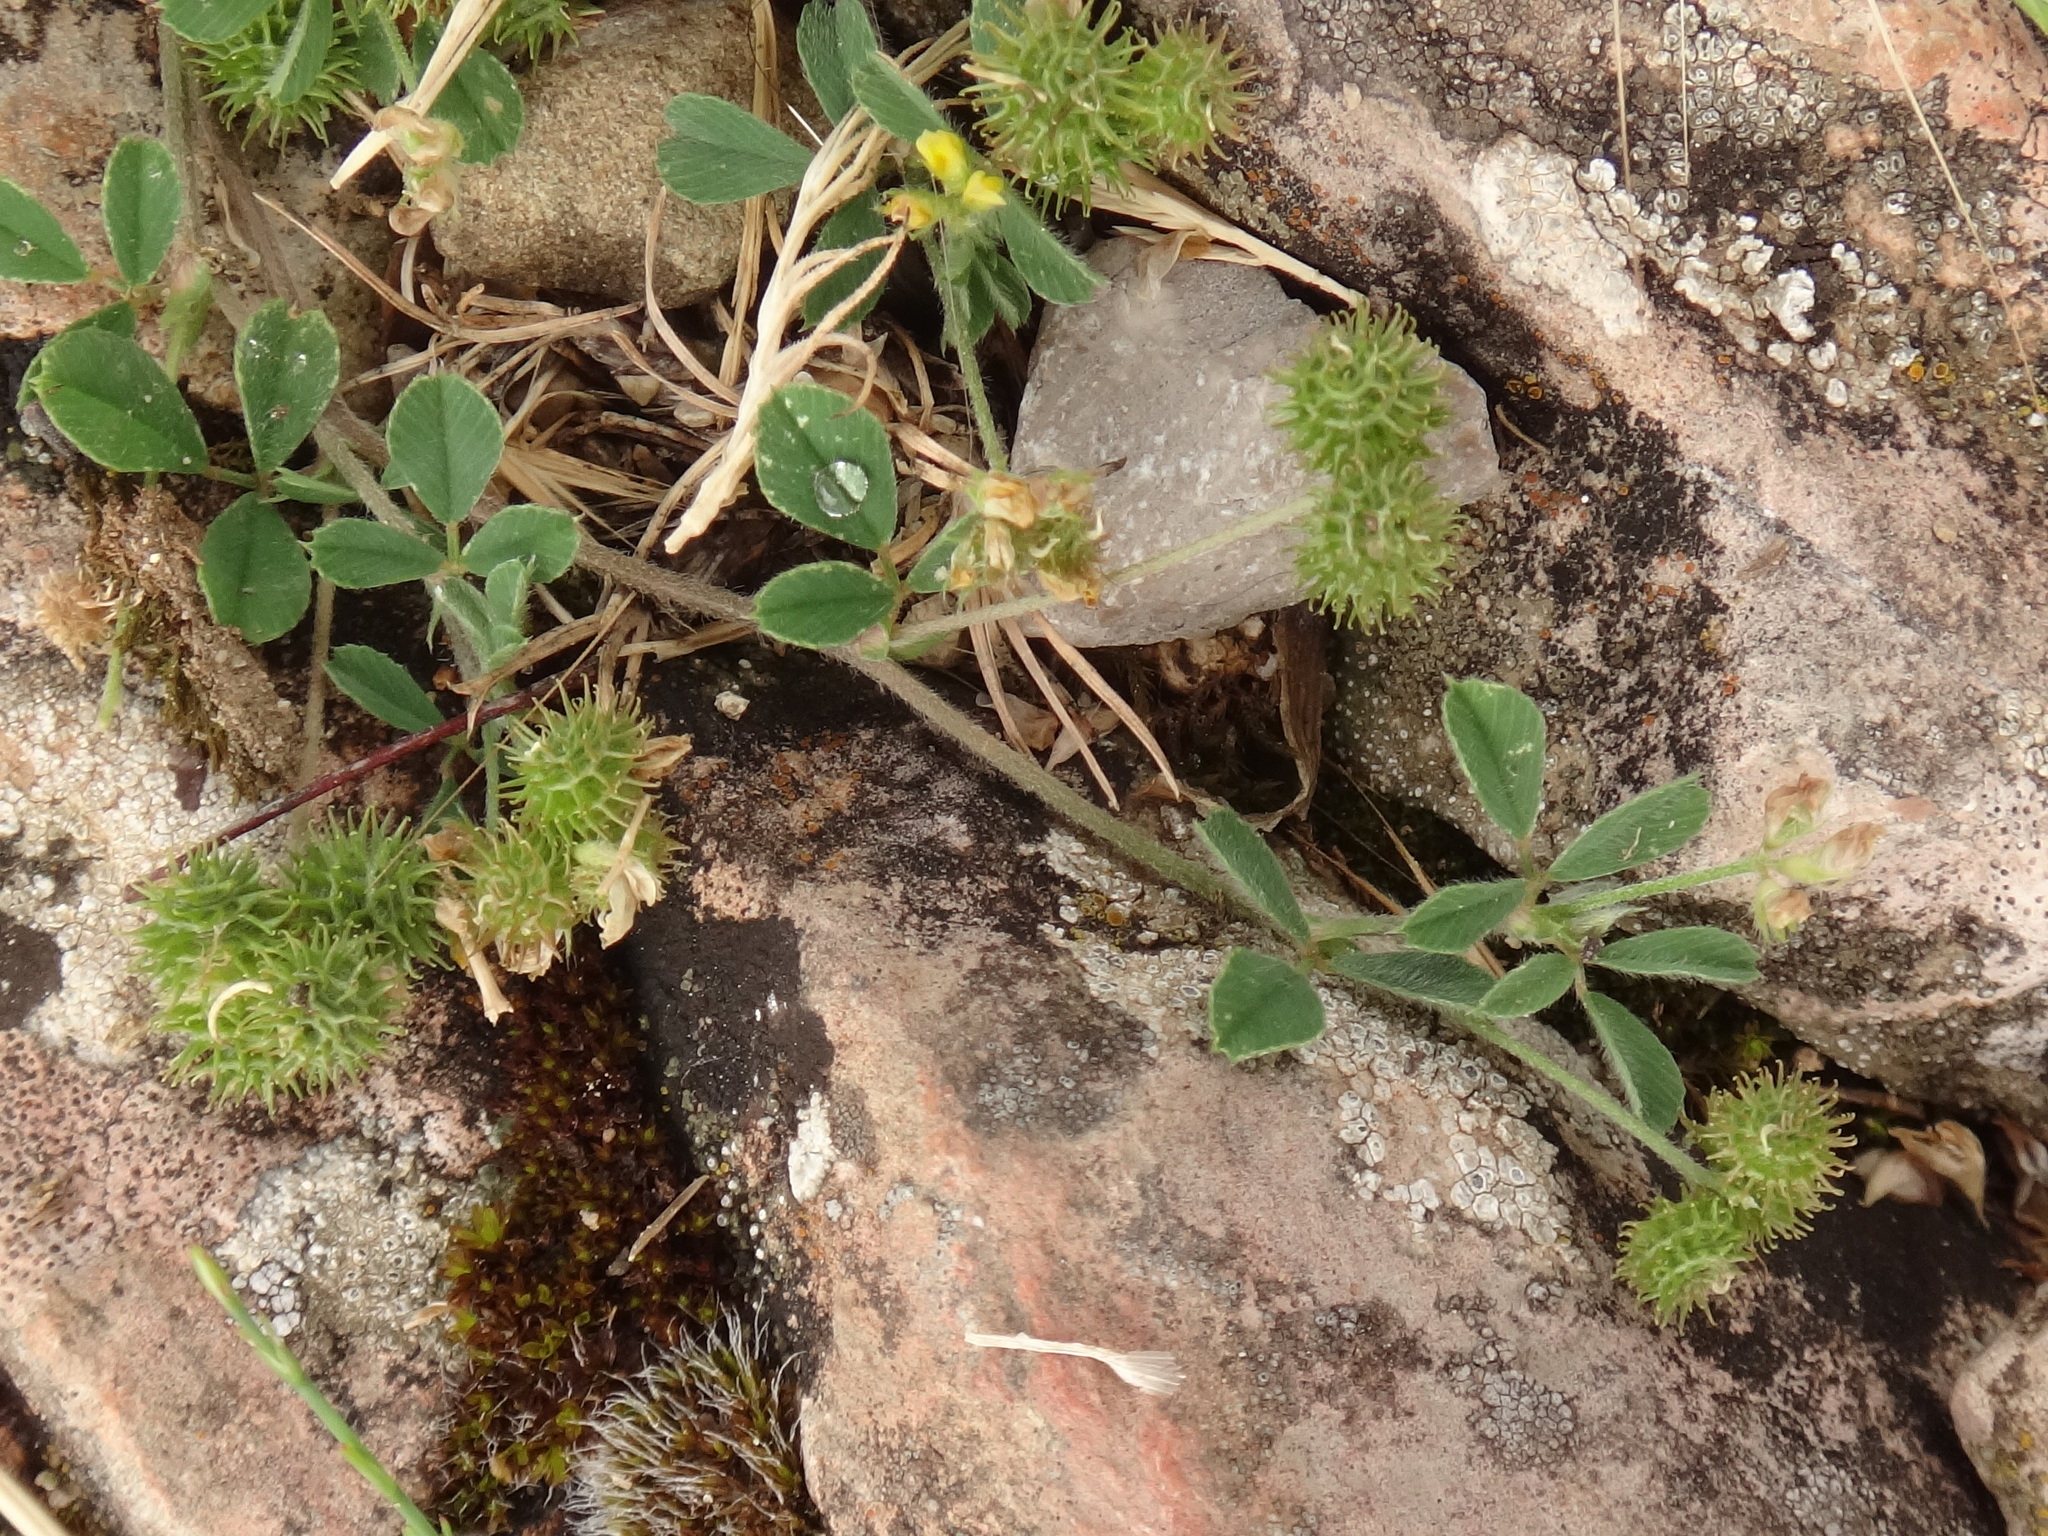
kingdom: Plantae
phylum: Tracheophyta
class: Magnoliopsida
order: Fabales
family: Fabaceae
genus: Medicago
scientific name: Medicago minima
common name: Little bur-clover
